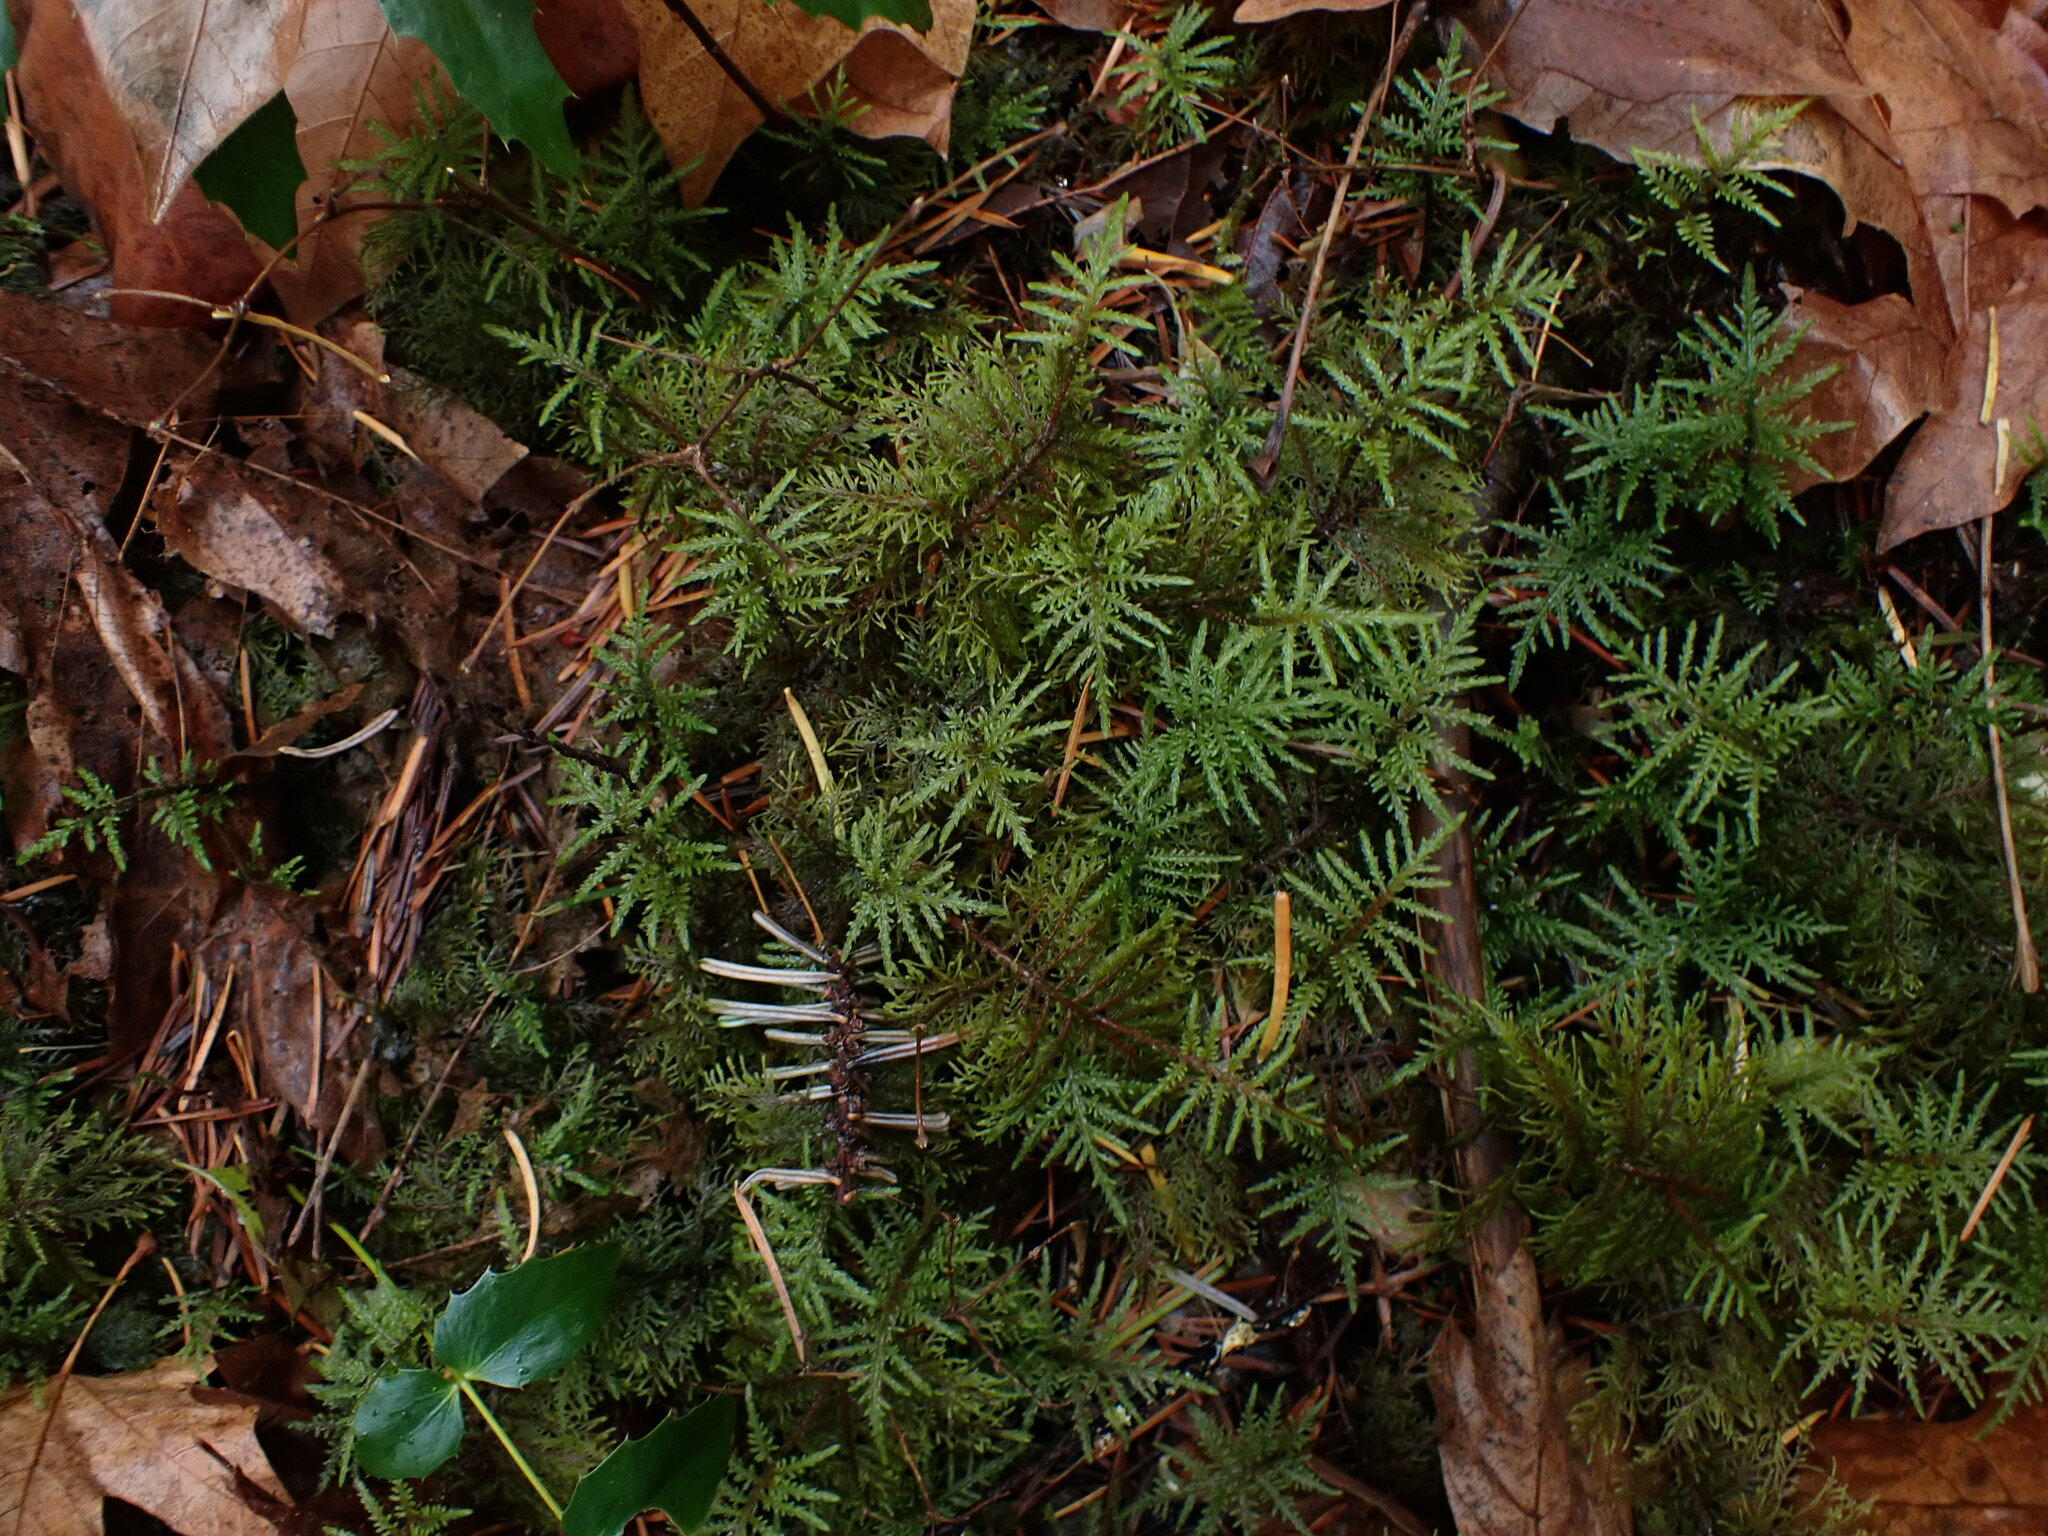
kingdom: Plantae
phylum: Bryophyta
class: Bryopsida
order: Hypnales
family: Hylocomiaceae
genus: Hylocomium
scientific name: Hylocomium splendens
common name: Stairstep moss
